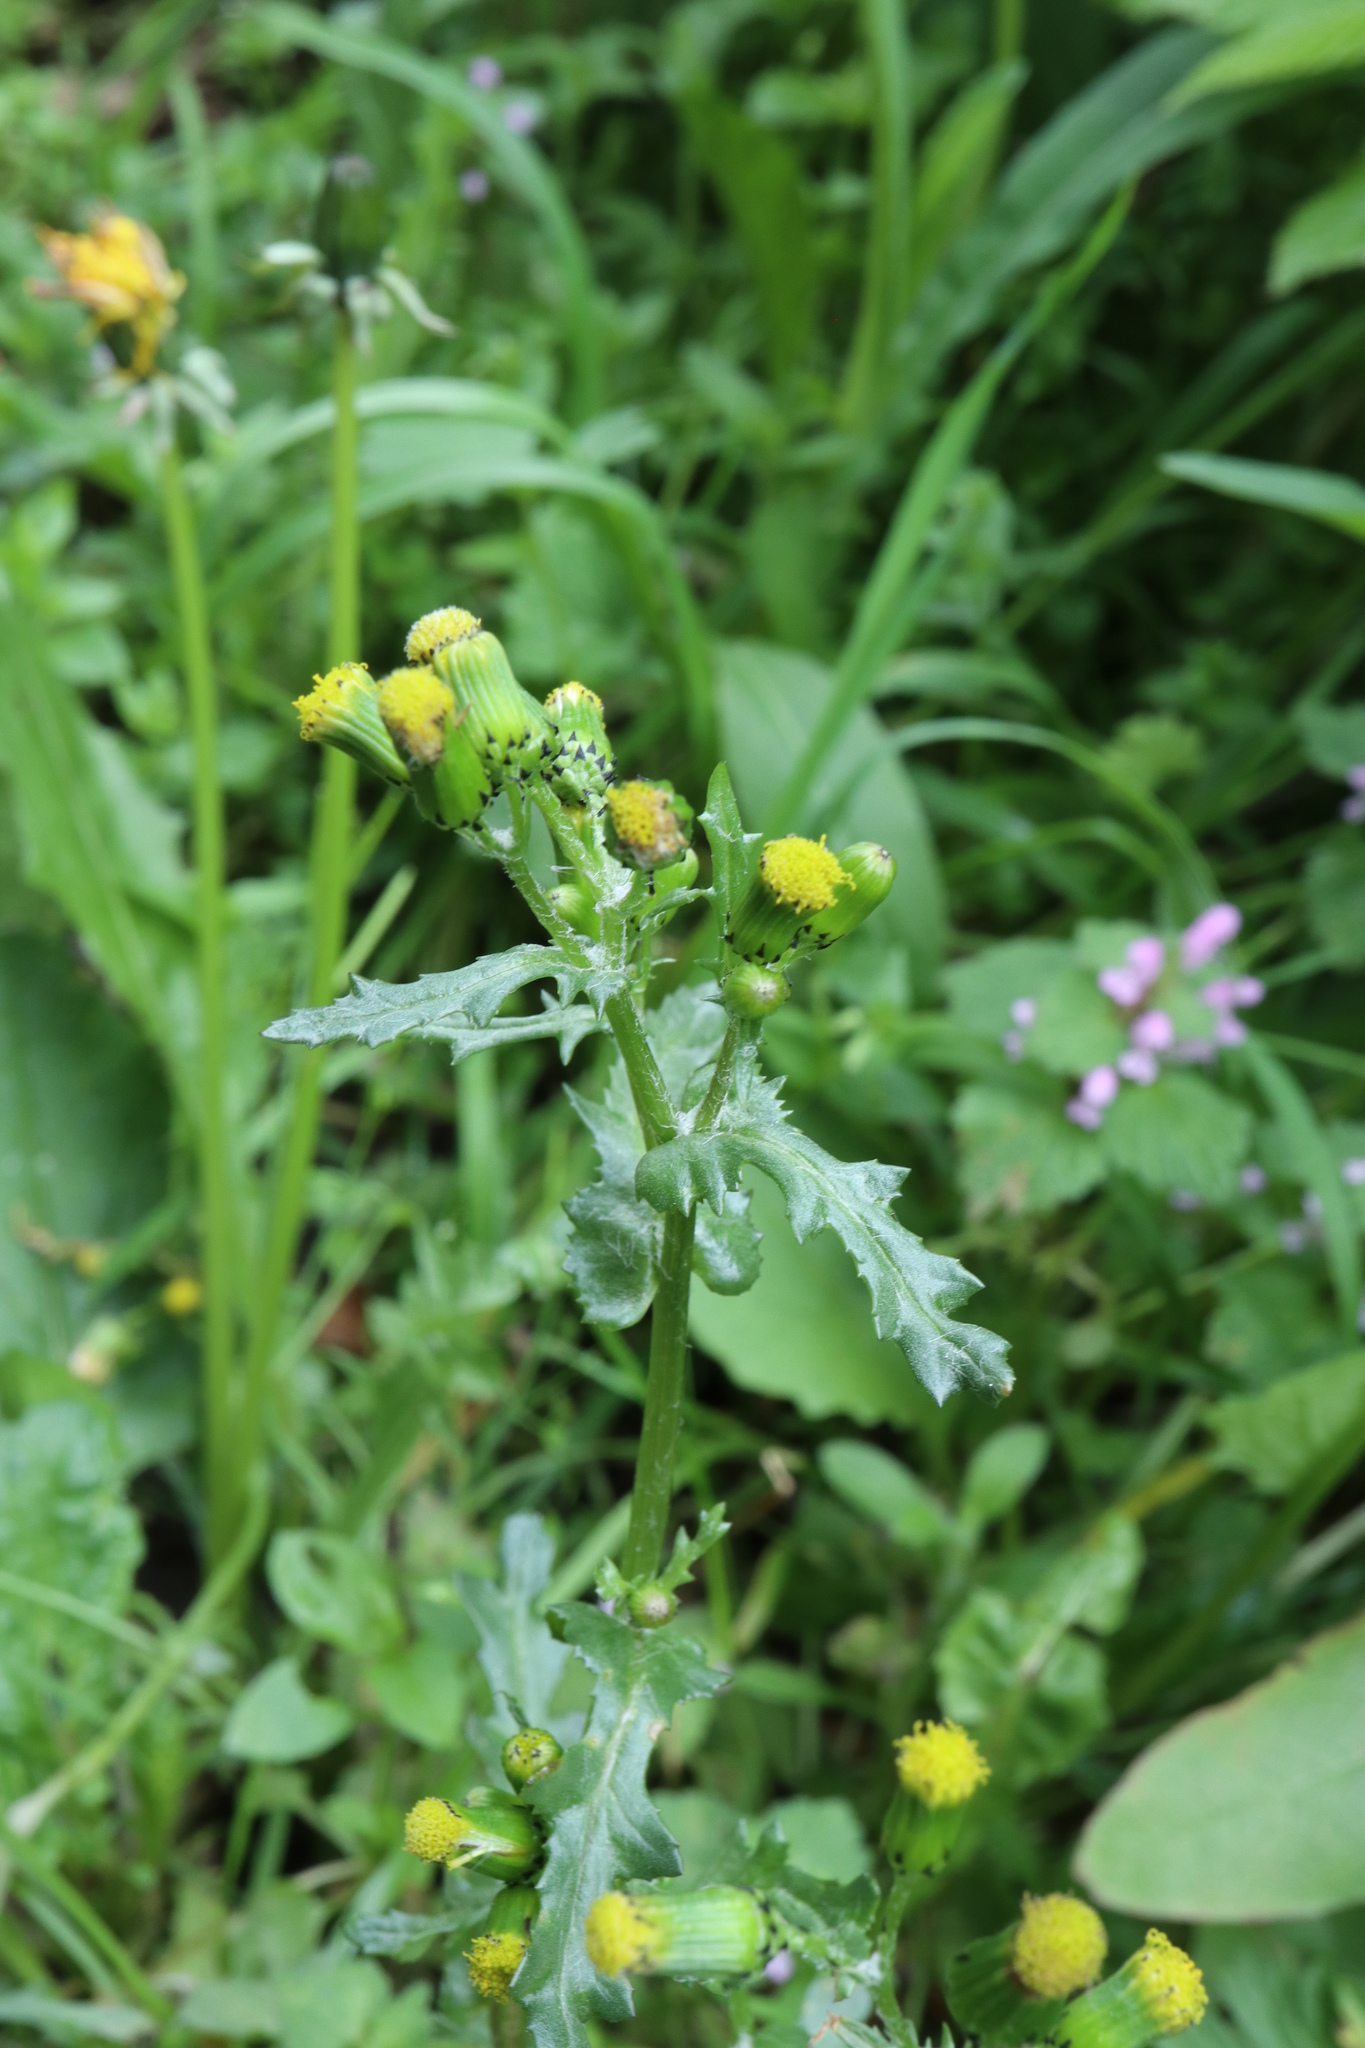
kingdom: Plantae
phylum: Tracheophyta
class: Magnoliopsida
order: Asterales
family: Asteraceae
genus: Senecio
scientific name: Senecio vulgaris
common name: Old-man-in-the-spring
